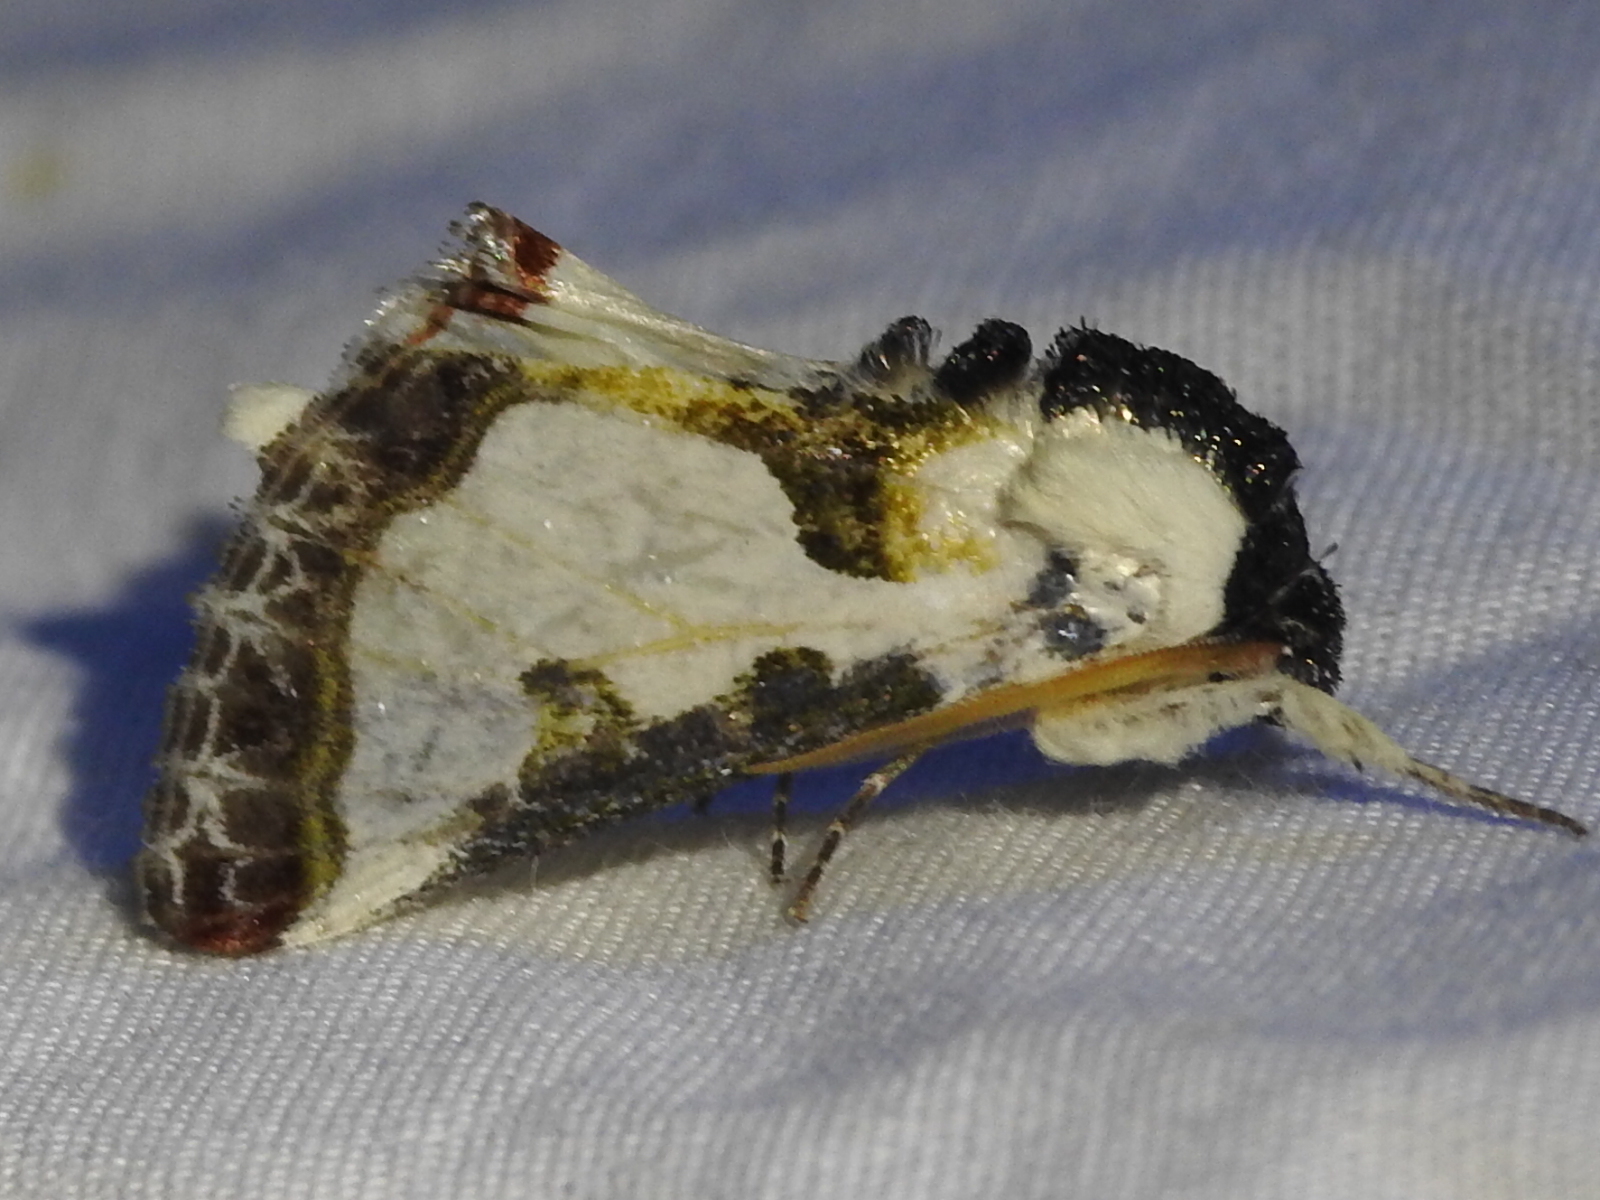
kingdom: Animalia
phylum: Arthropoda
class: Insecta
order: Lepidoptera
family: Noctuidae
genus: Xerociris
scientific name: Xerociris wilsonii
